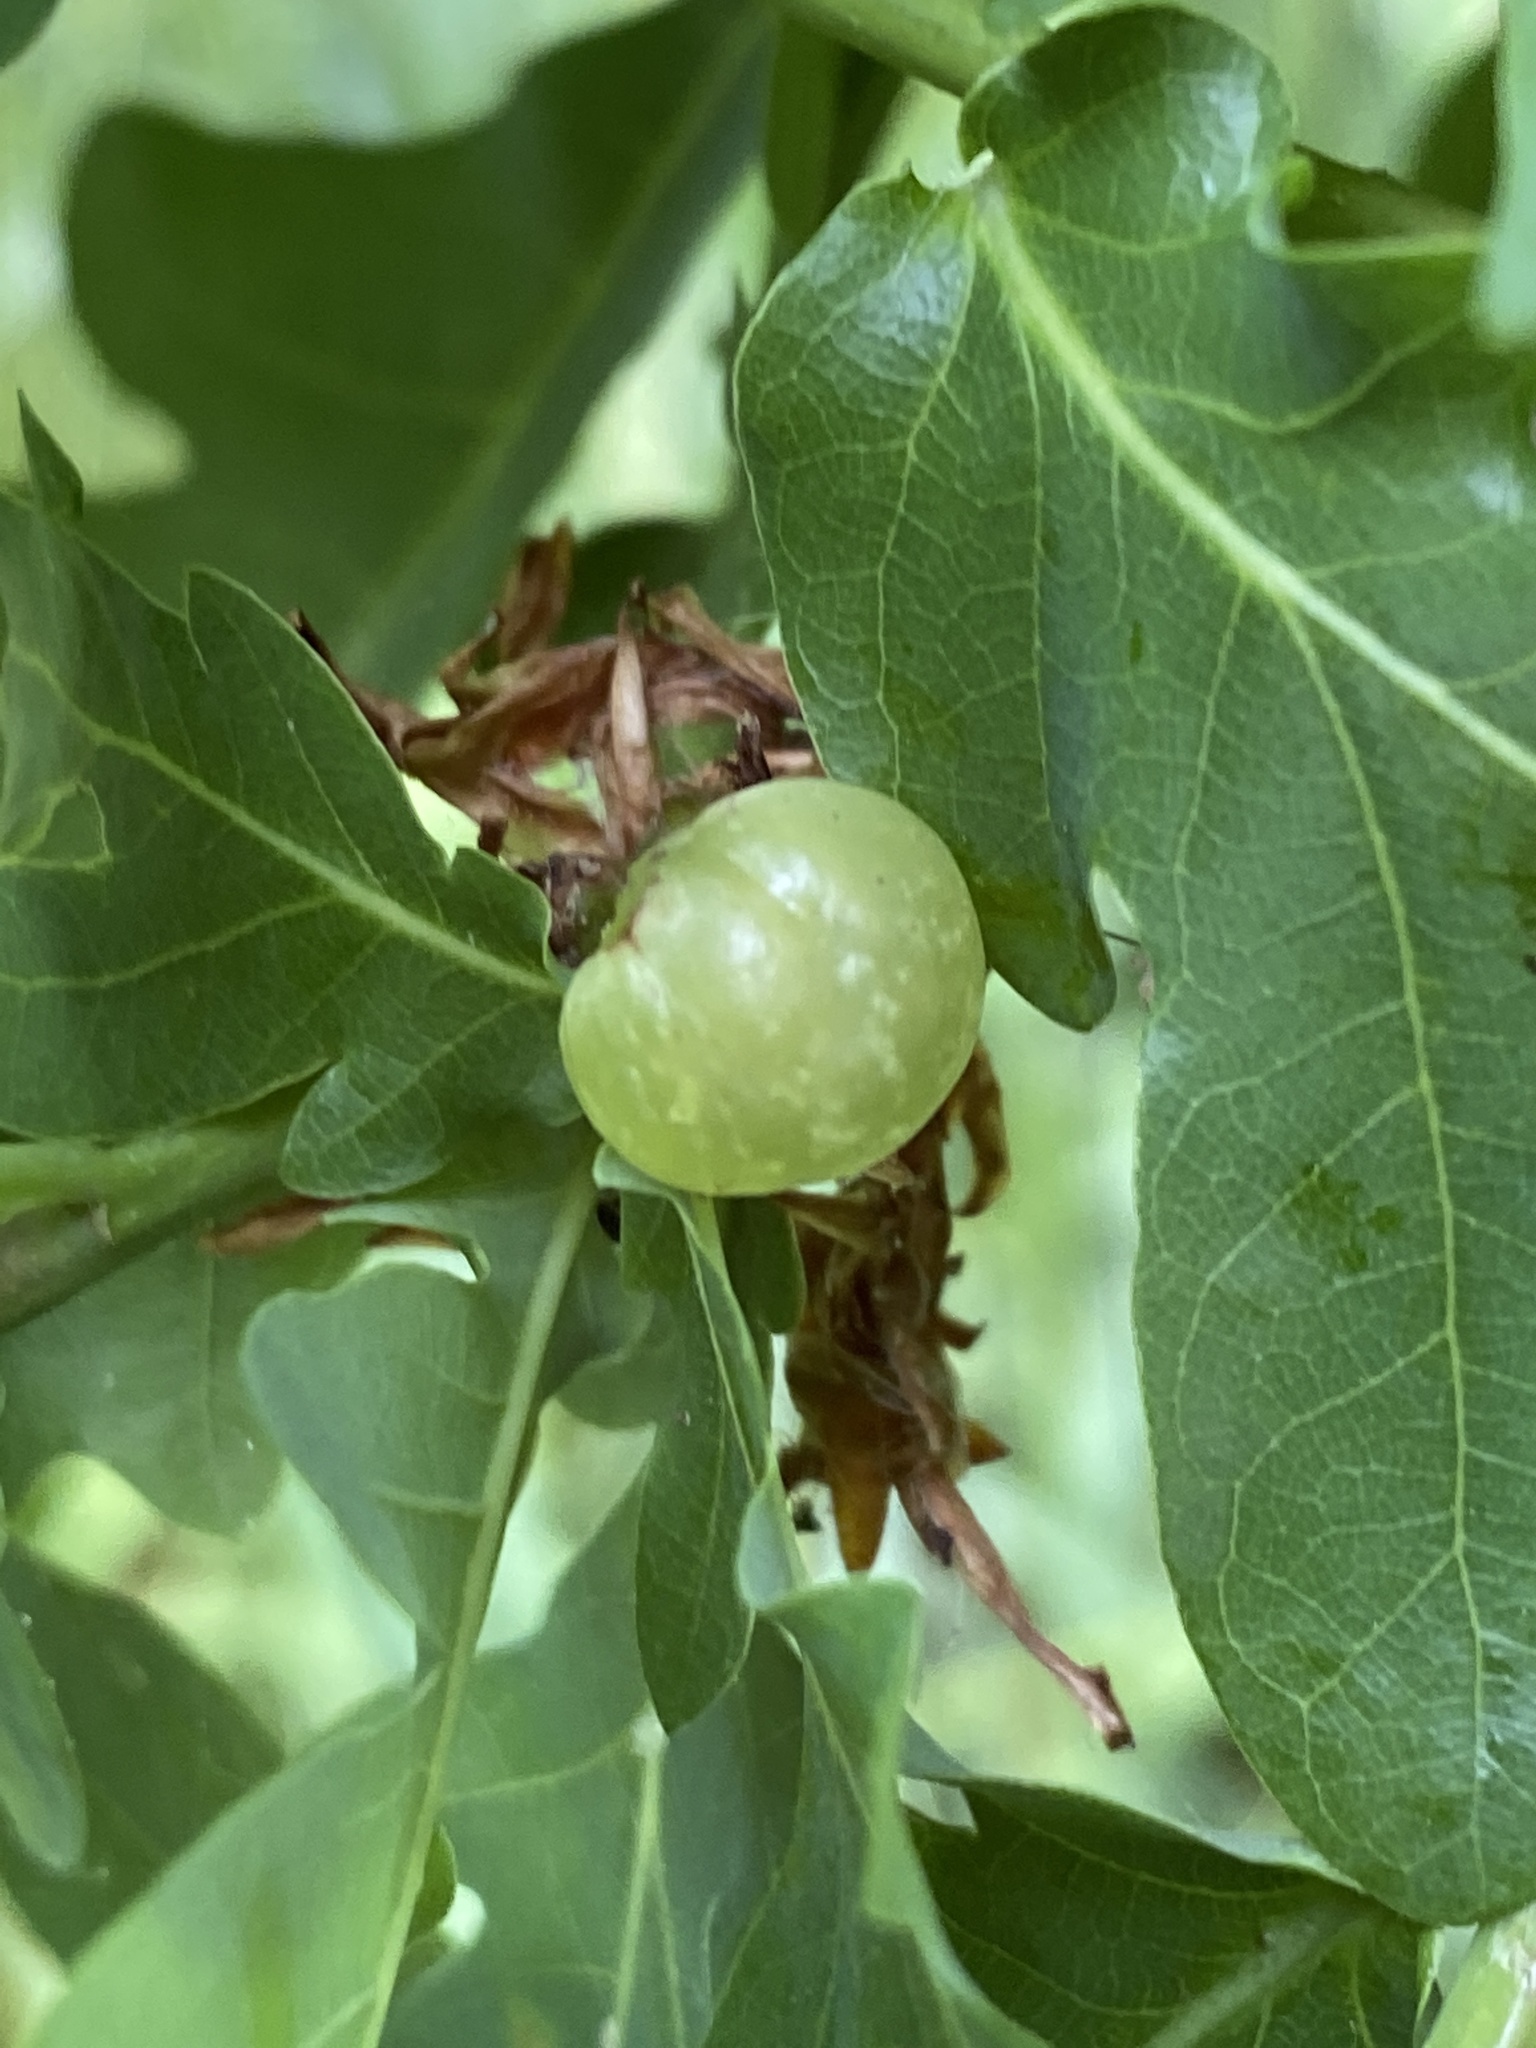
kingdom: Animalia
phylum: Arthropoda
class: Insecta
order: Hymenoptera
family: Cynipidae
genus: Neuroterus
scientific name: Neuroterus quercusbaccarum
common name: Common spangle gall
